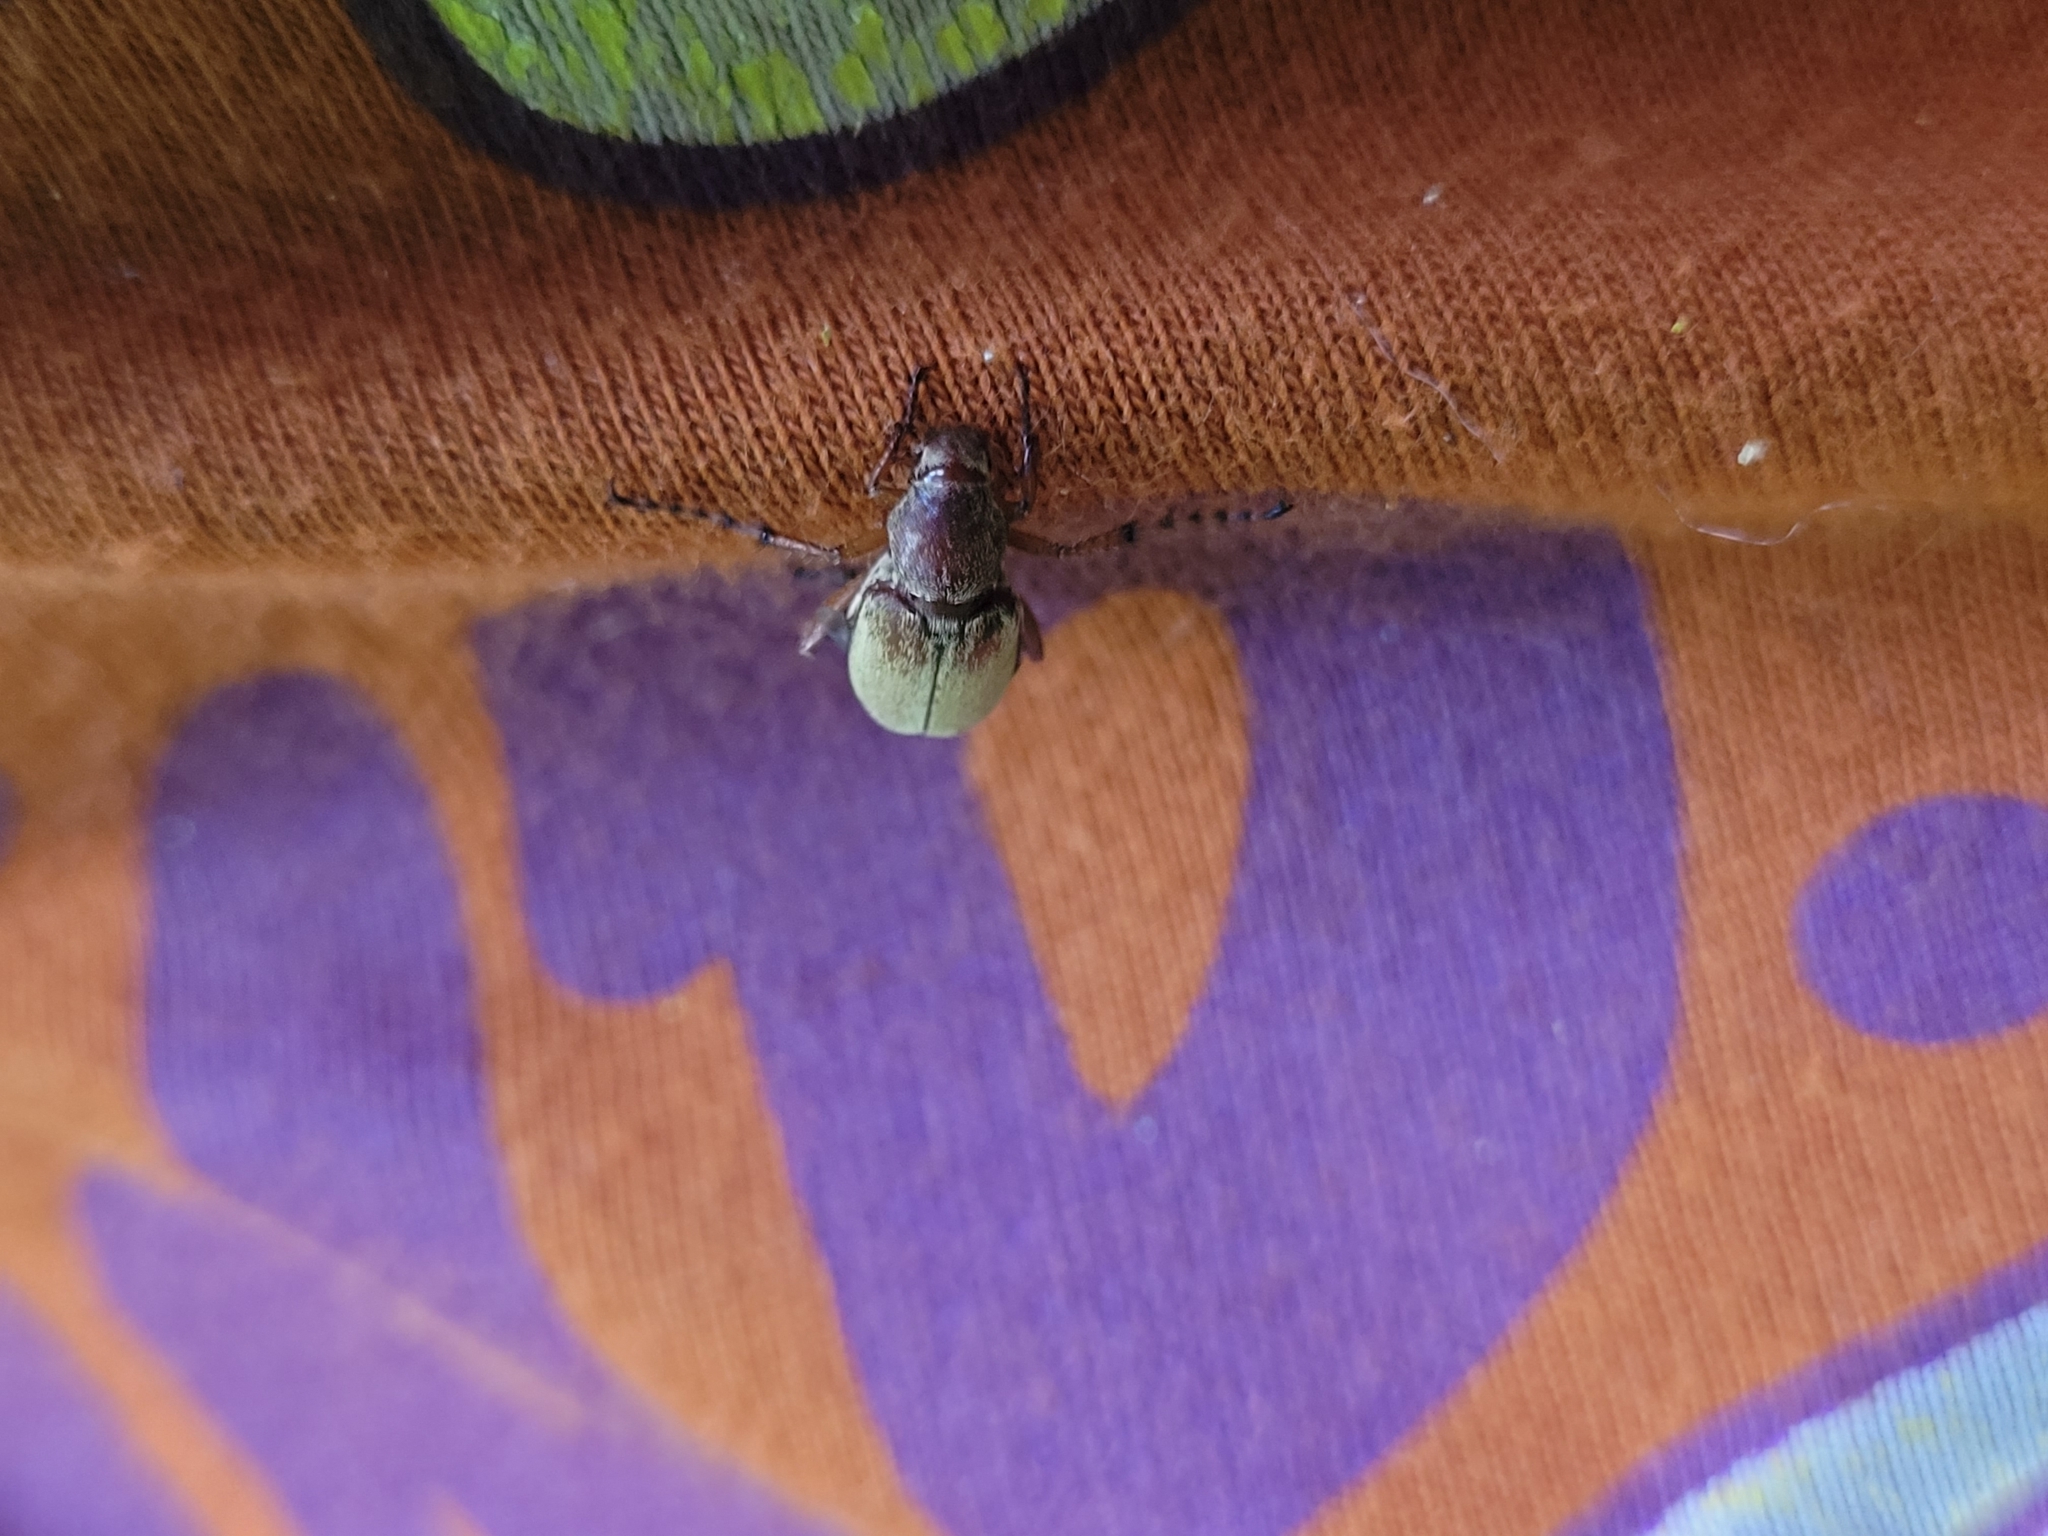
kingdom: Animalia
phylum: Arthropoda
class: Insecta
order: Coleoptera
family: Scarabaeidae
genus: Macrodactylus
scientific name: Macrodactylus subspinosus
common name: American rose chafer
